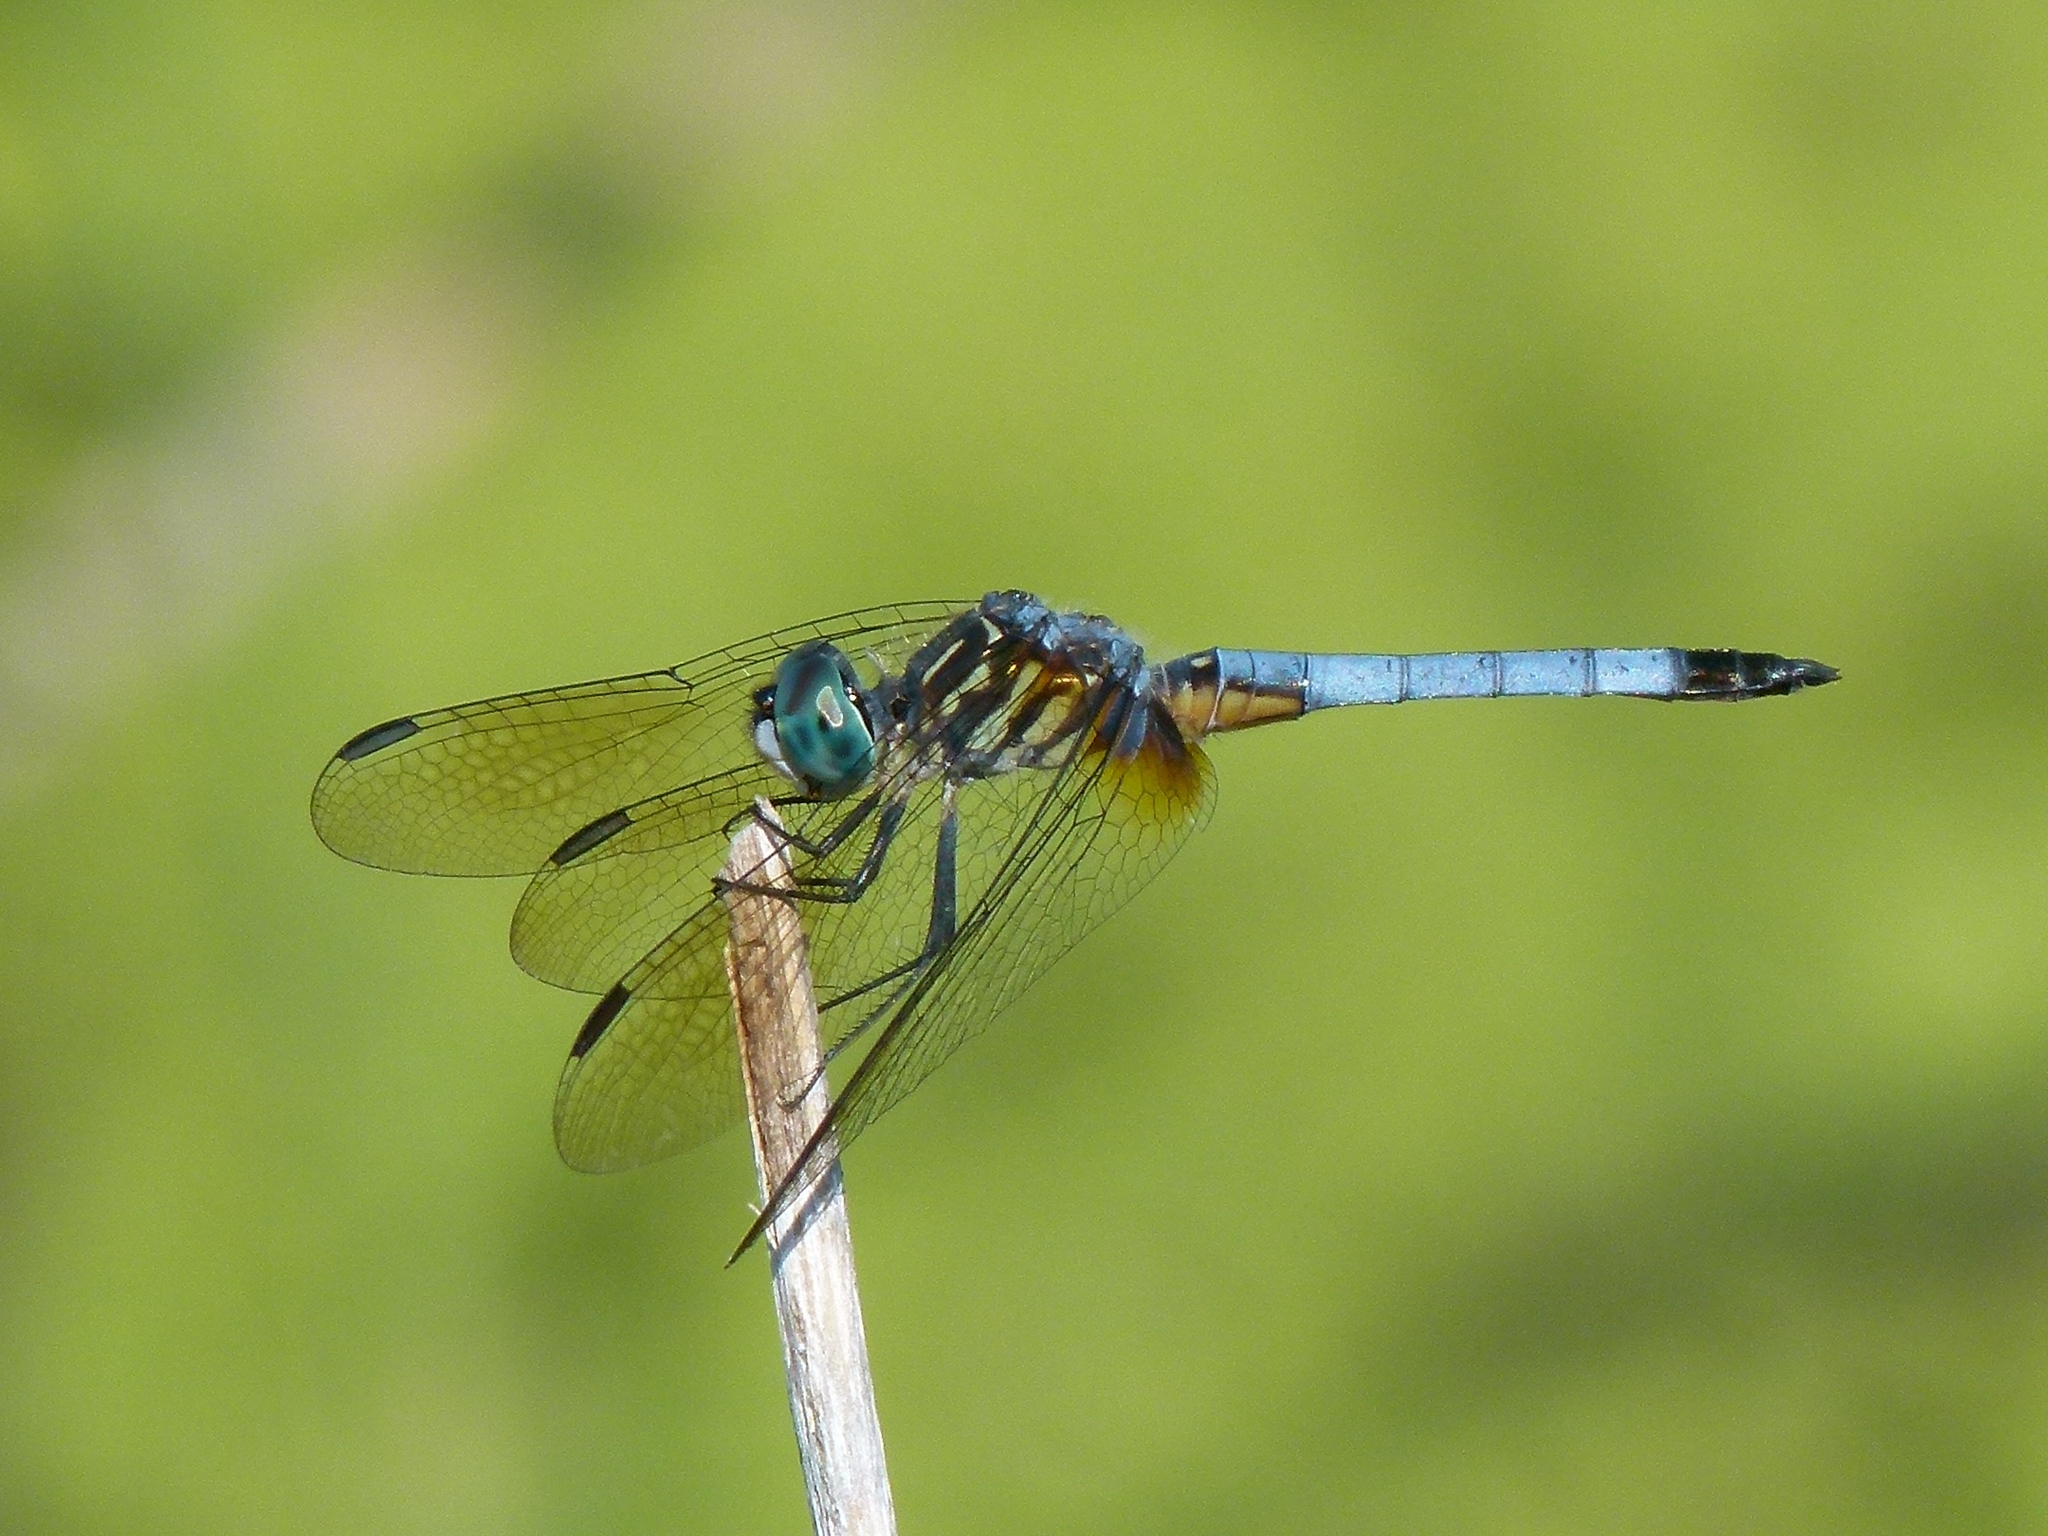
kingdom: Animalia
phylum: Arthropoda
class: Insecta
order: Odonata
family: Libellulidae
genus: Pachydiplax
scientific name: Pachydiplax longipennis
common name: Blue dasher
